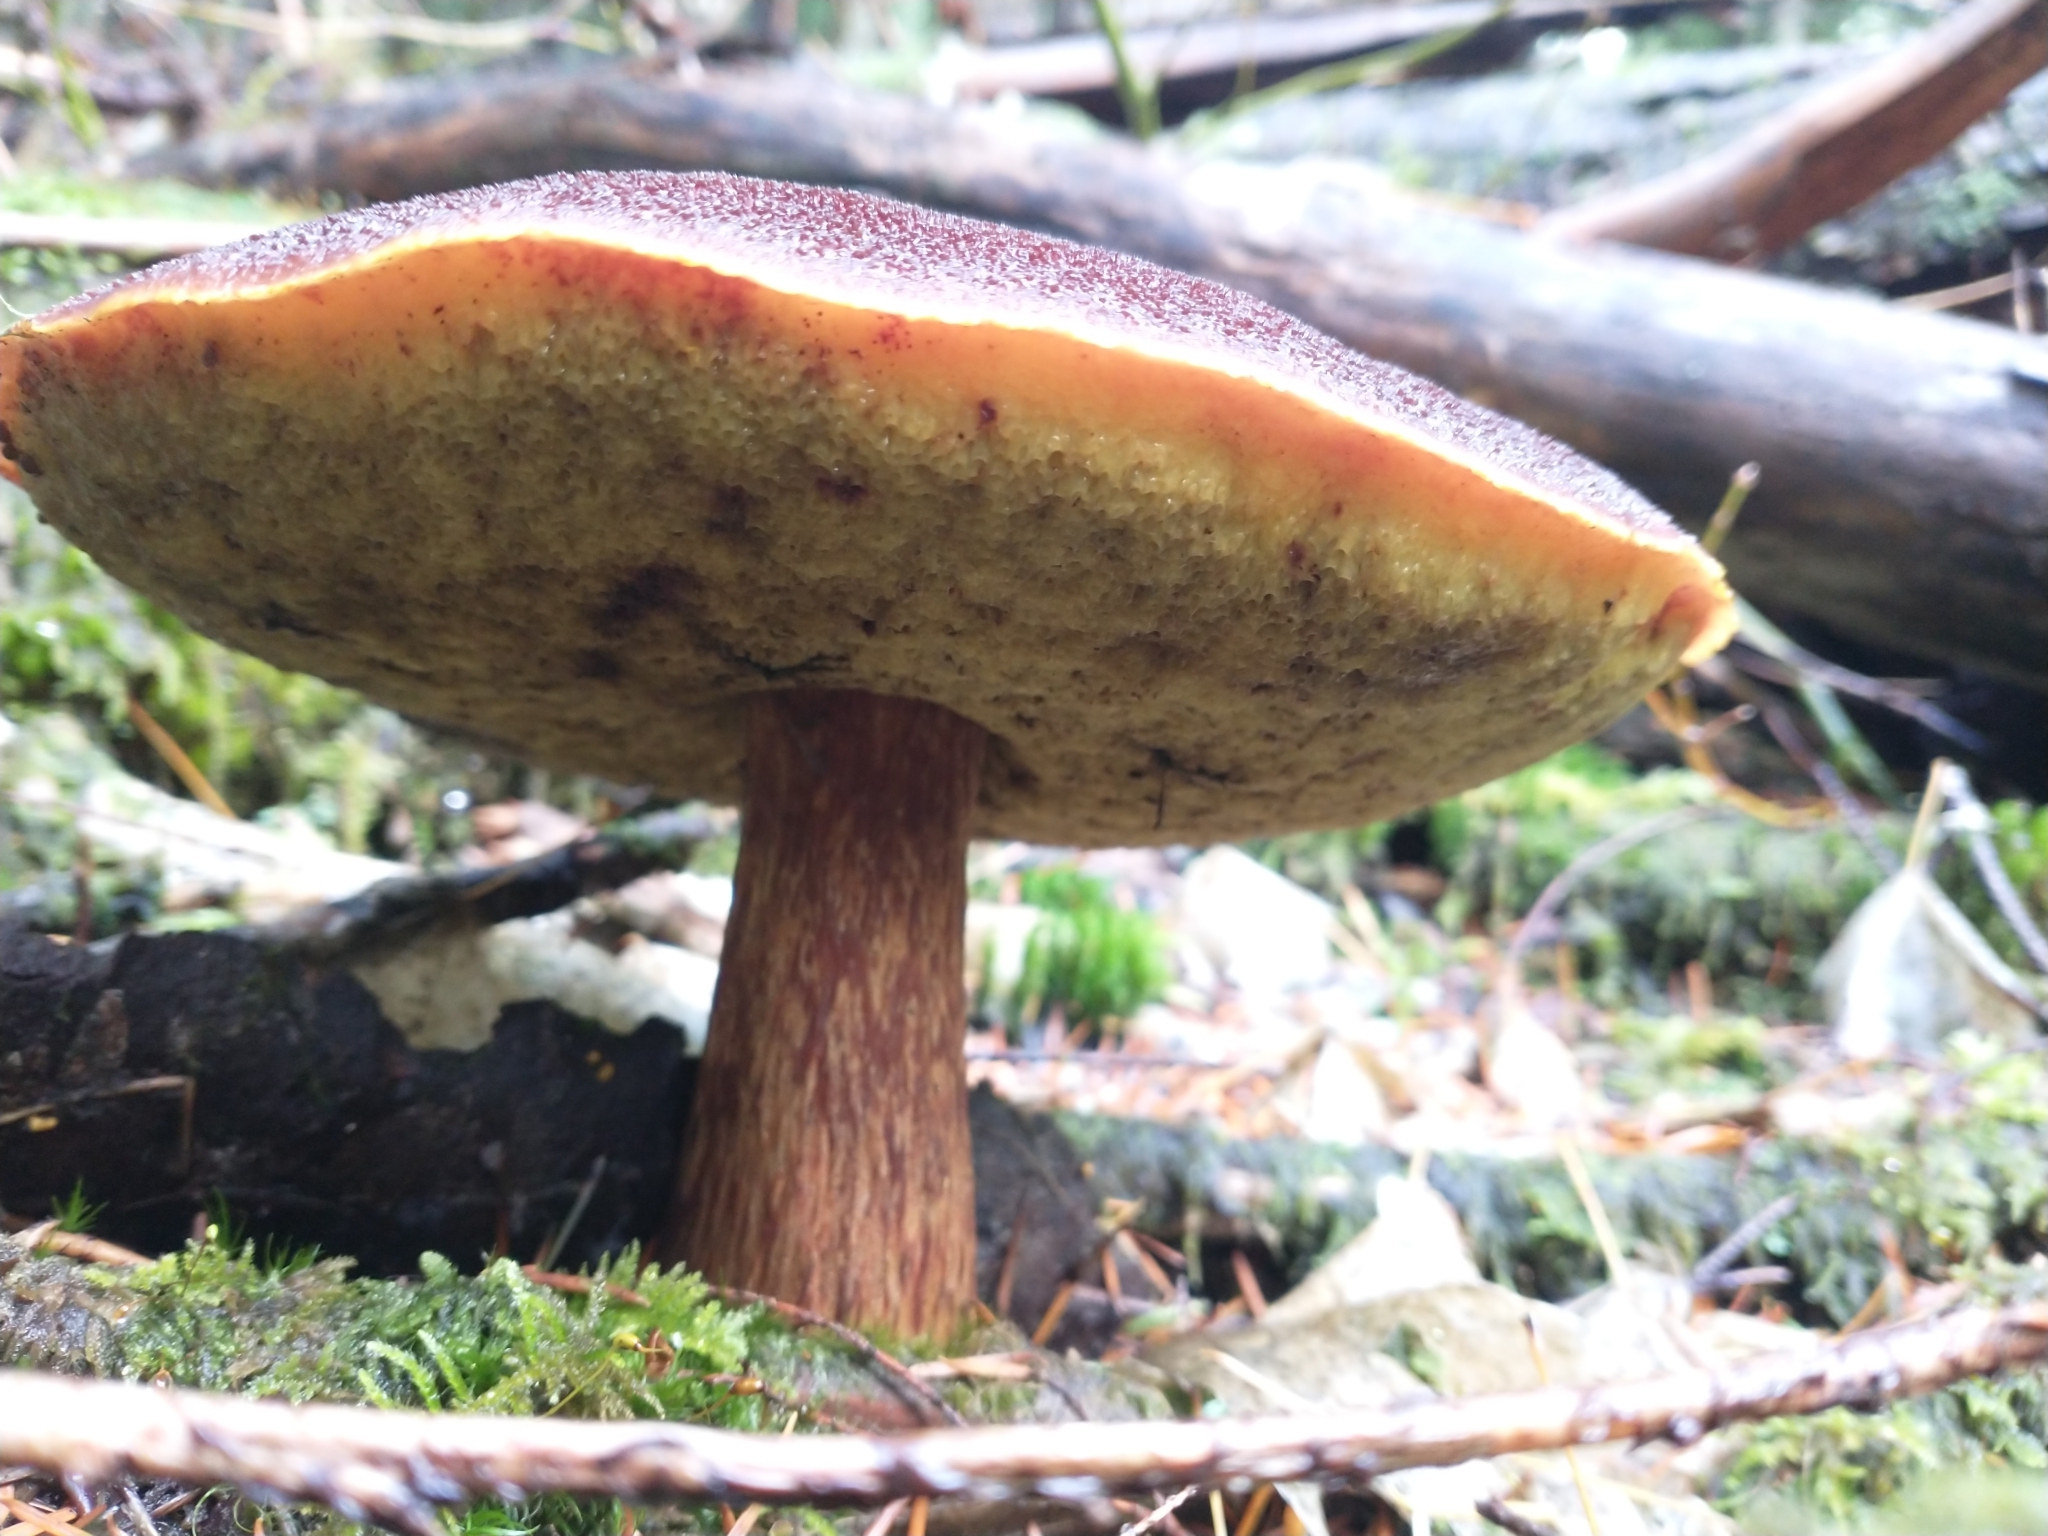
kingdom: Fungi
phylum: Basidiomycota
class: Agaricomycetes
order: Boletales
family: Boletaceae
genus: Aureoboletus
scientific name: Aureoboletus mirabilis
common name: Admirable bolete
